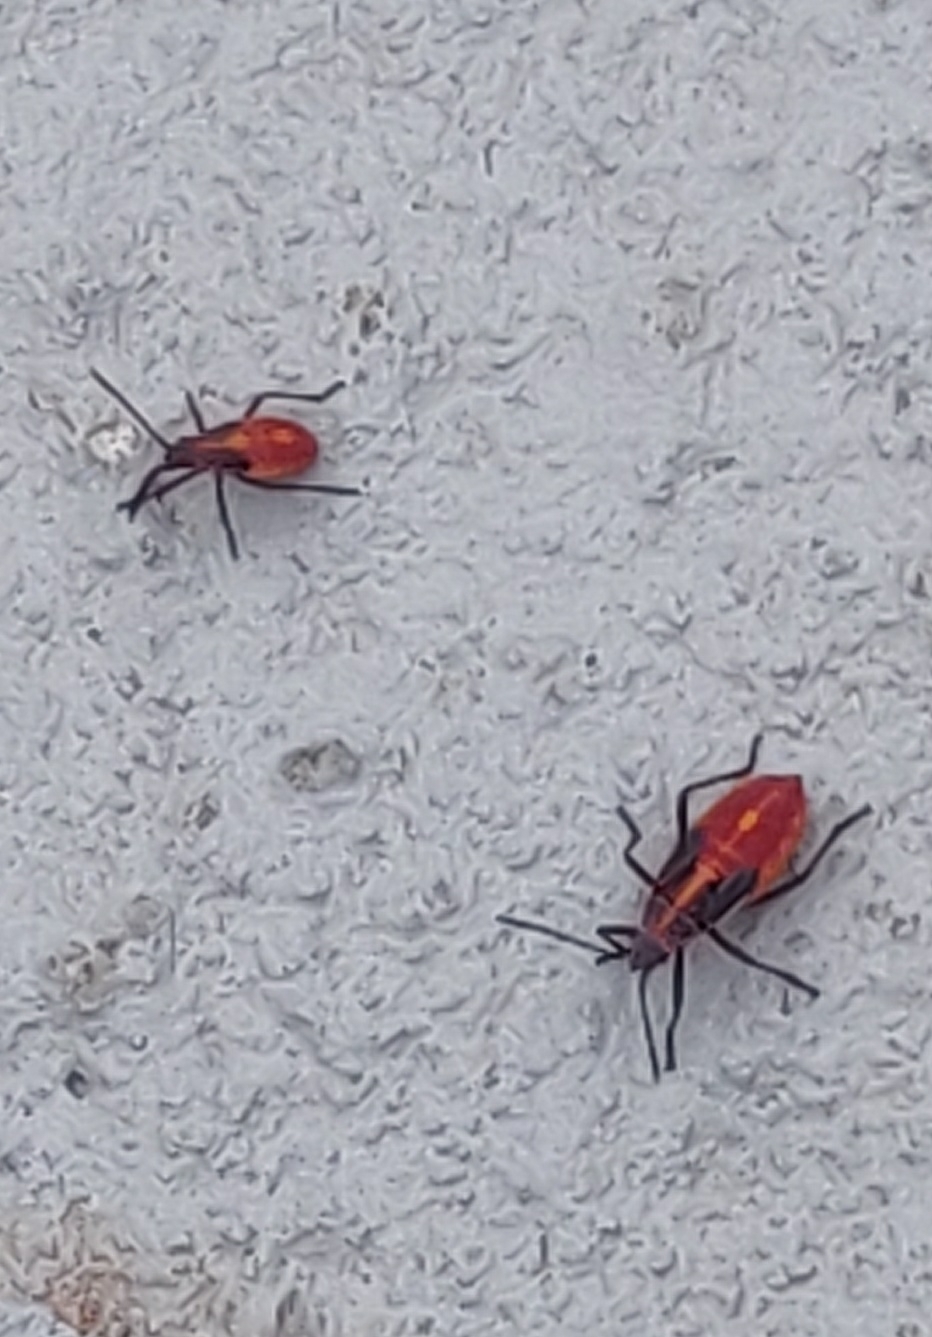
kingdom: Animalia
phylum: Arthropoda
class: Insecta
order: Hemiptera
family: Rhopalidae
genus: Boisea
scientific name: Boisea trivittata
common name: Boxelder bug
